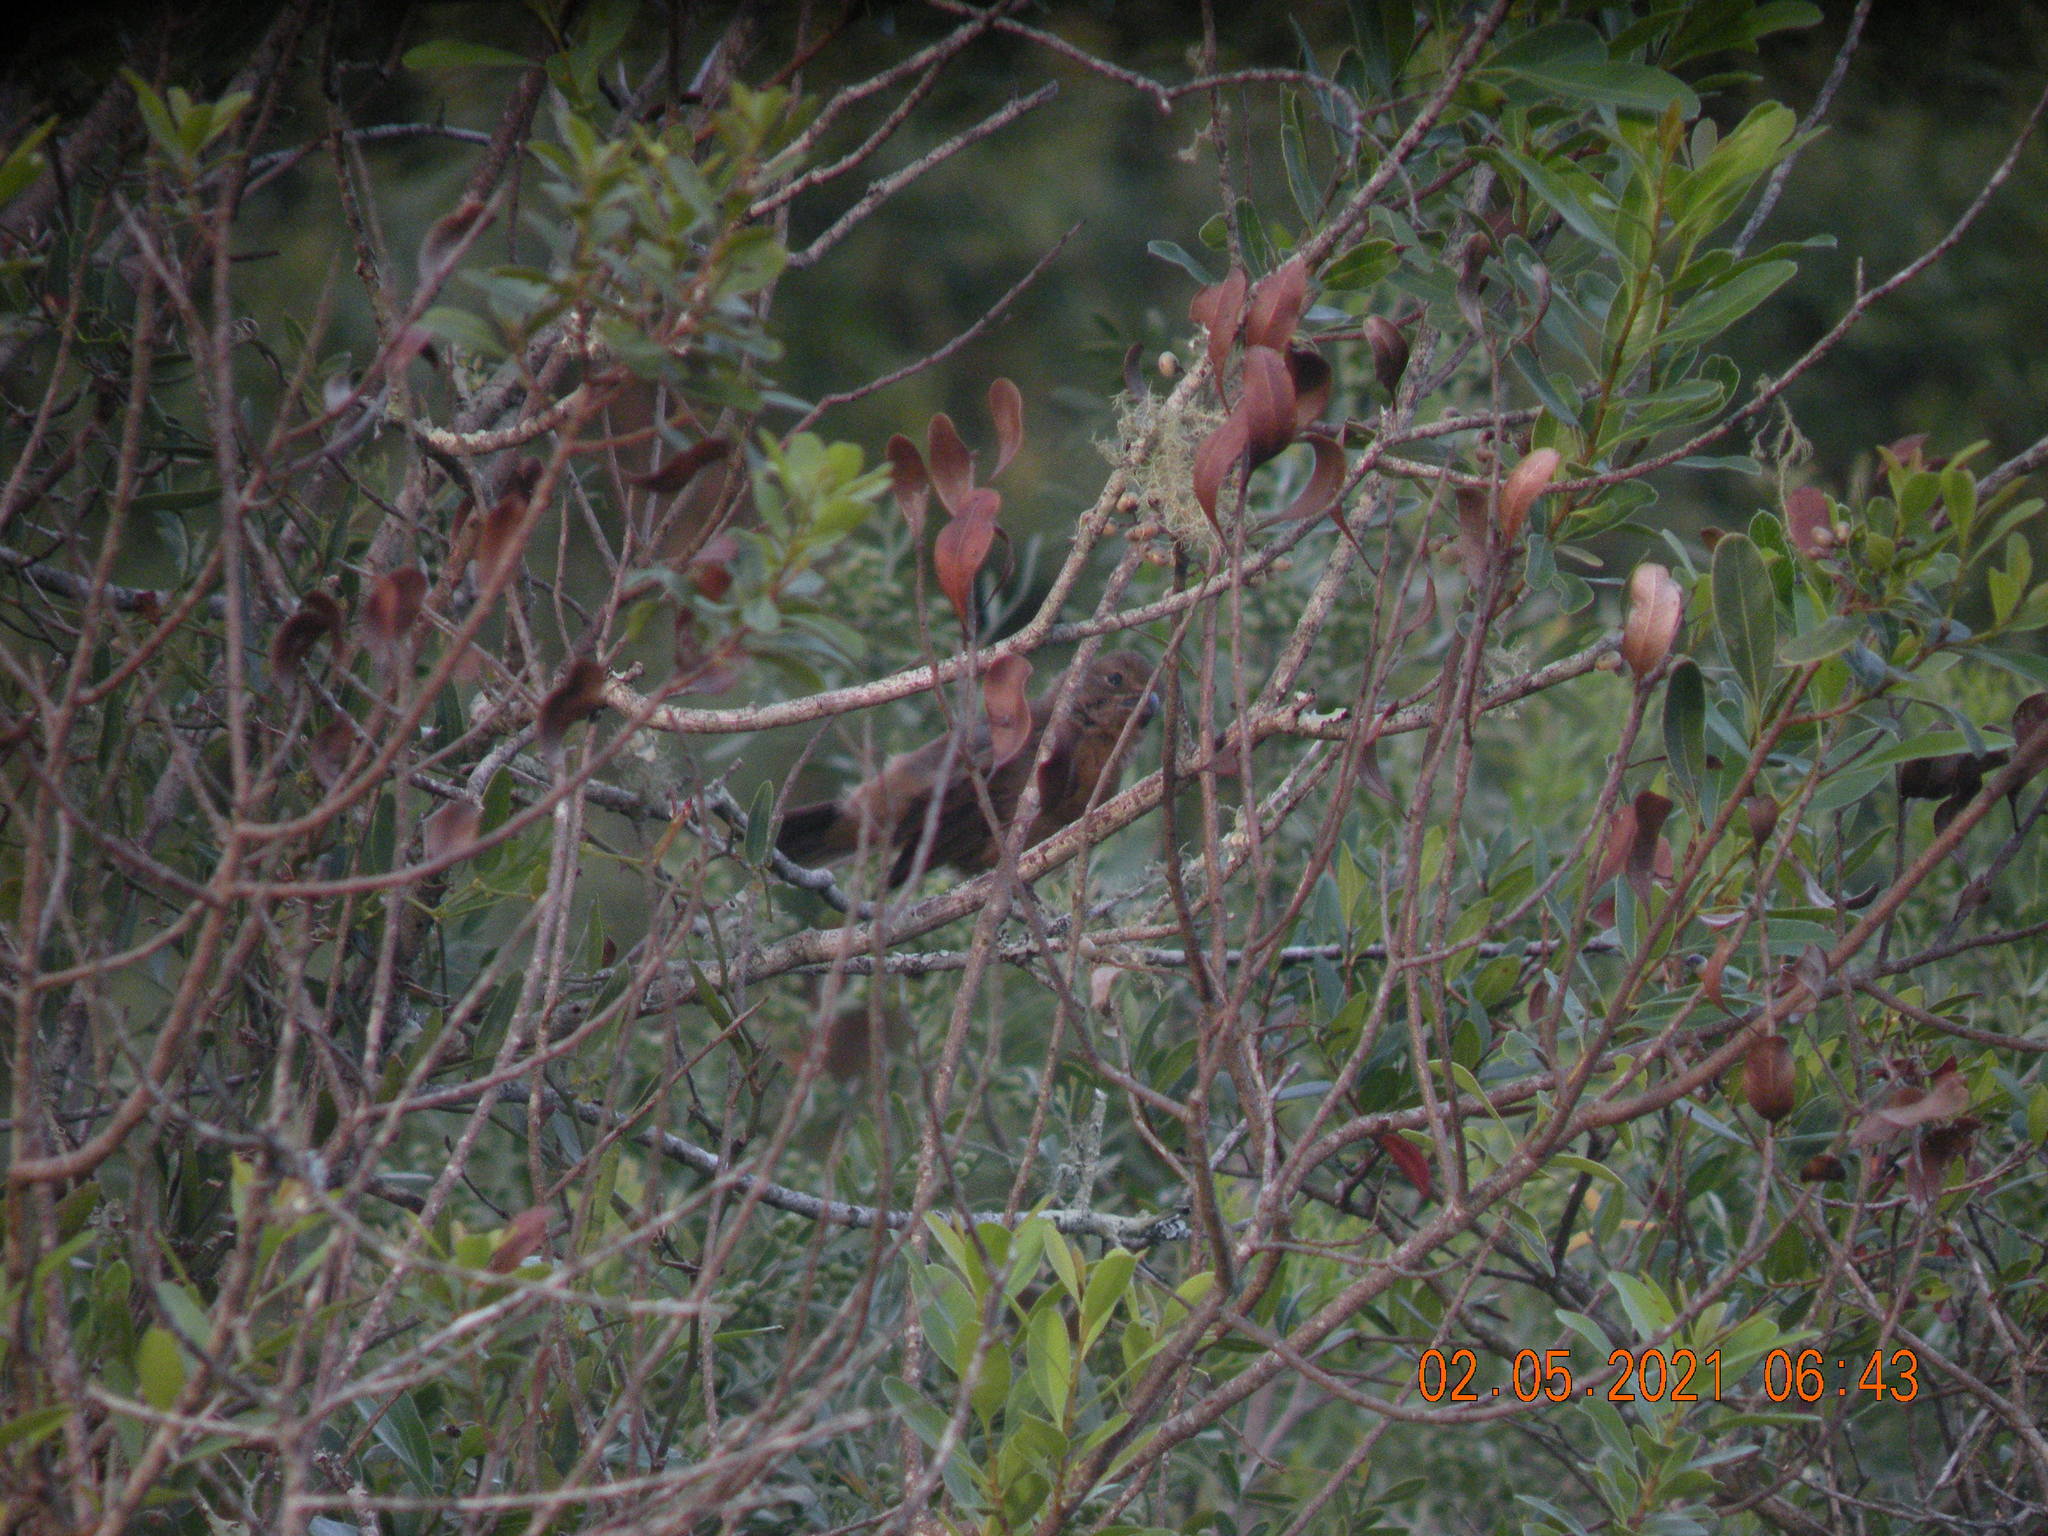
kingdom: Animalia
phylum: Chordata
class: Aves
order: Passeriformes
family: Cardinalidae
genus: Cyanoloxia
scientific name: Cyanoloxia glaucocaerulea
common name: Glaucous-blue grosbeak
